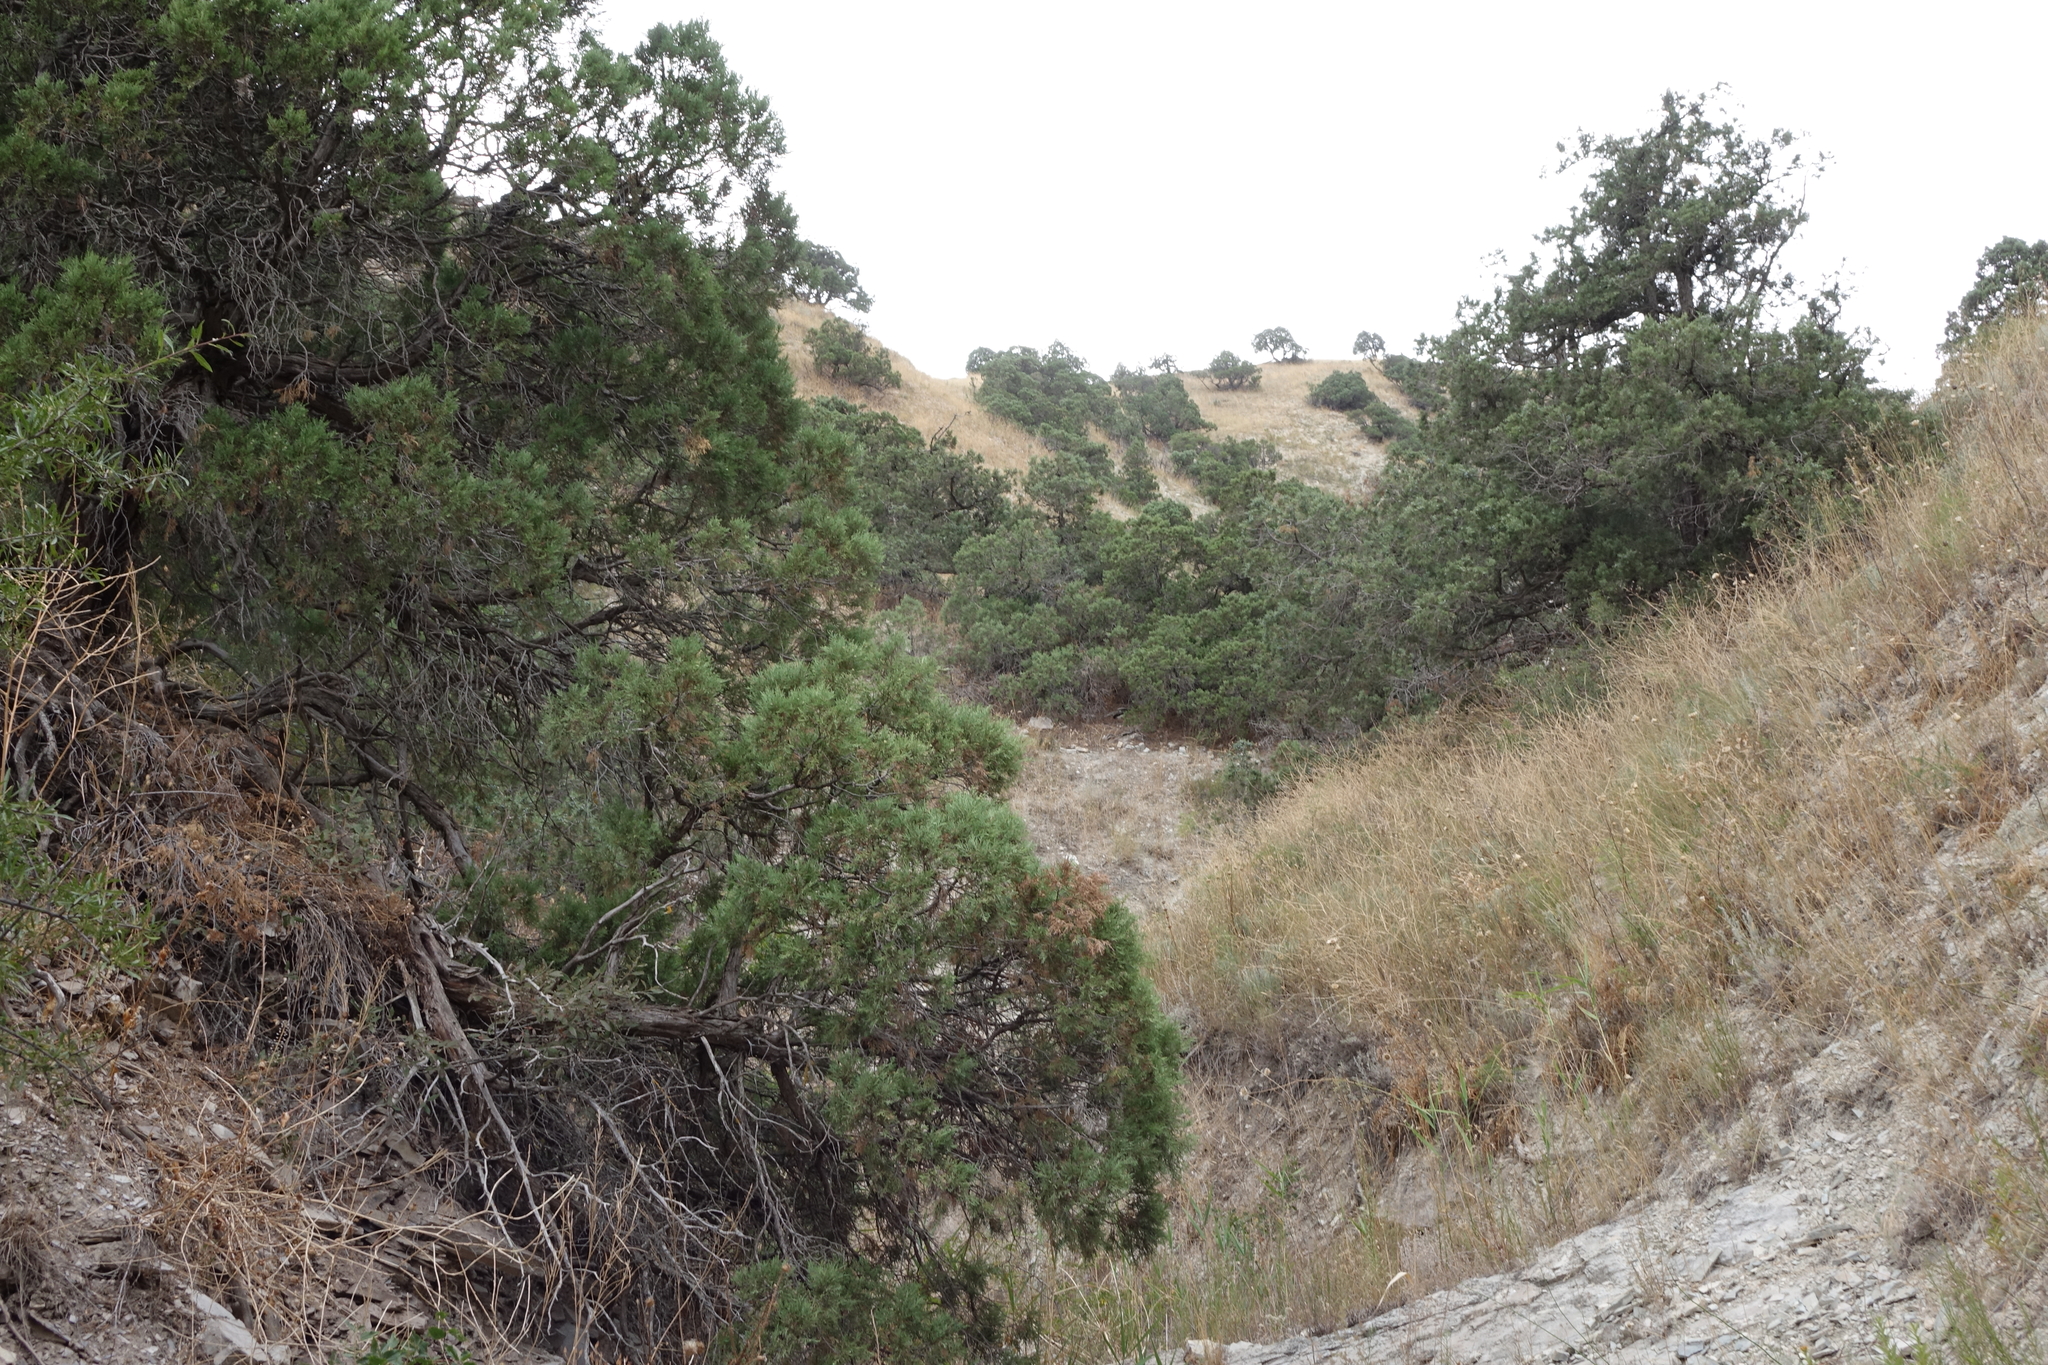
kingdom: Plantae
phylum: Tracheophyta
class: Pinopsida
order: Pinales
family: Cupressaceae
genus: Juniperus
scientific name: Juniperus excelsa
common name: Crimean juniper
